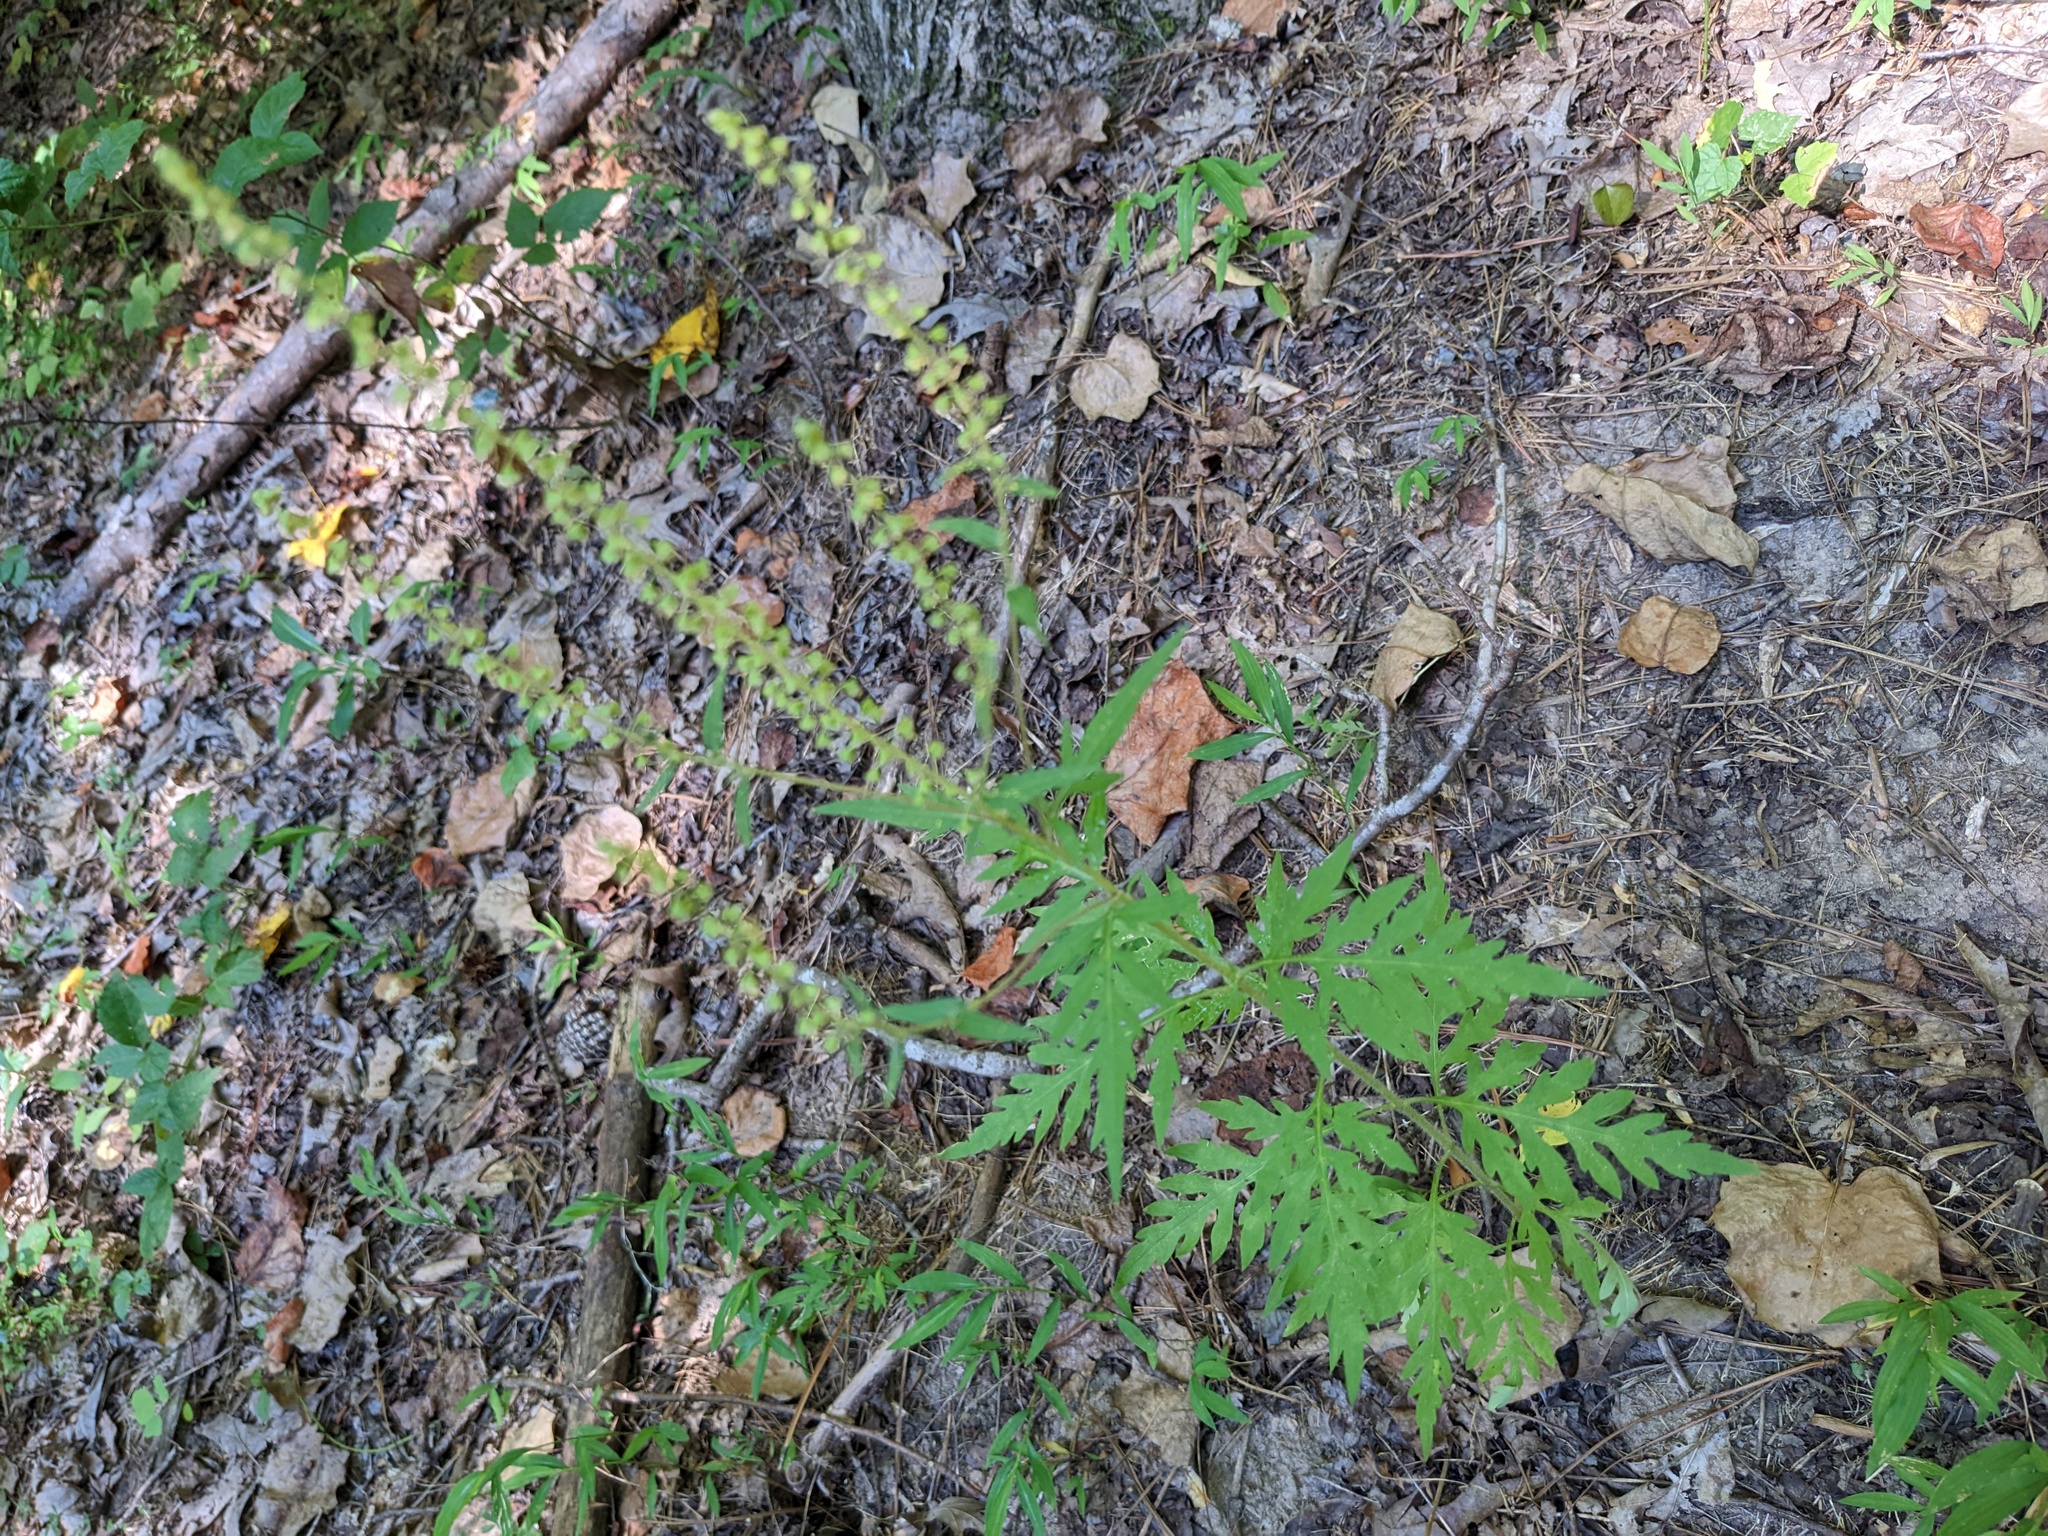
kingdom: Plantae
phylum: Tracheophyta
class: Magnoliopsida
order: Asterales
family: Asteraceae
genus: Ambrosia
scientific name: Ambrosia artemisiifolia
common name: Annual ragweed
